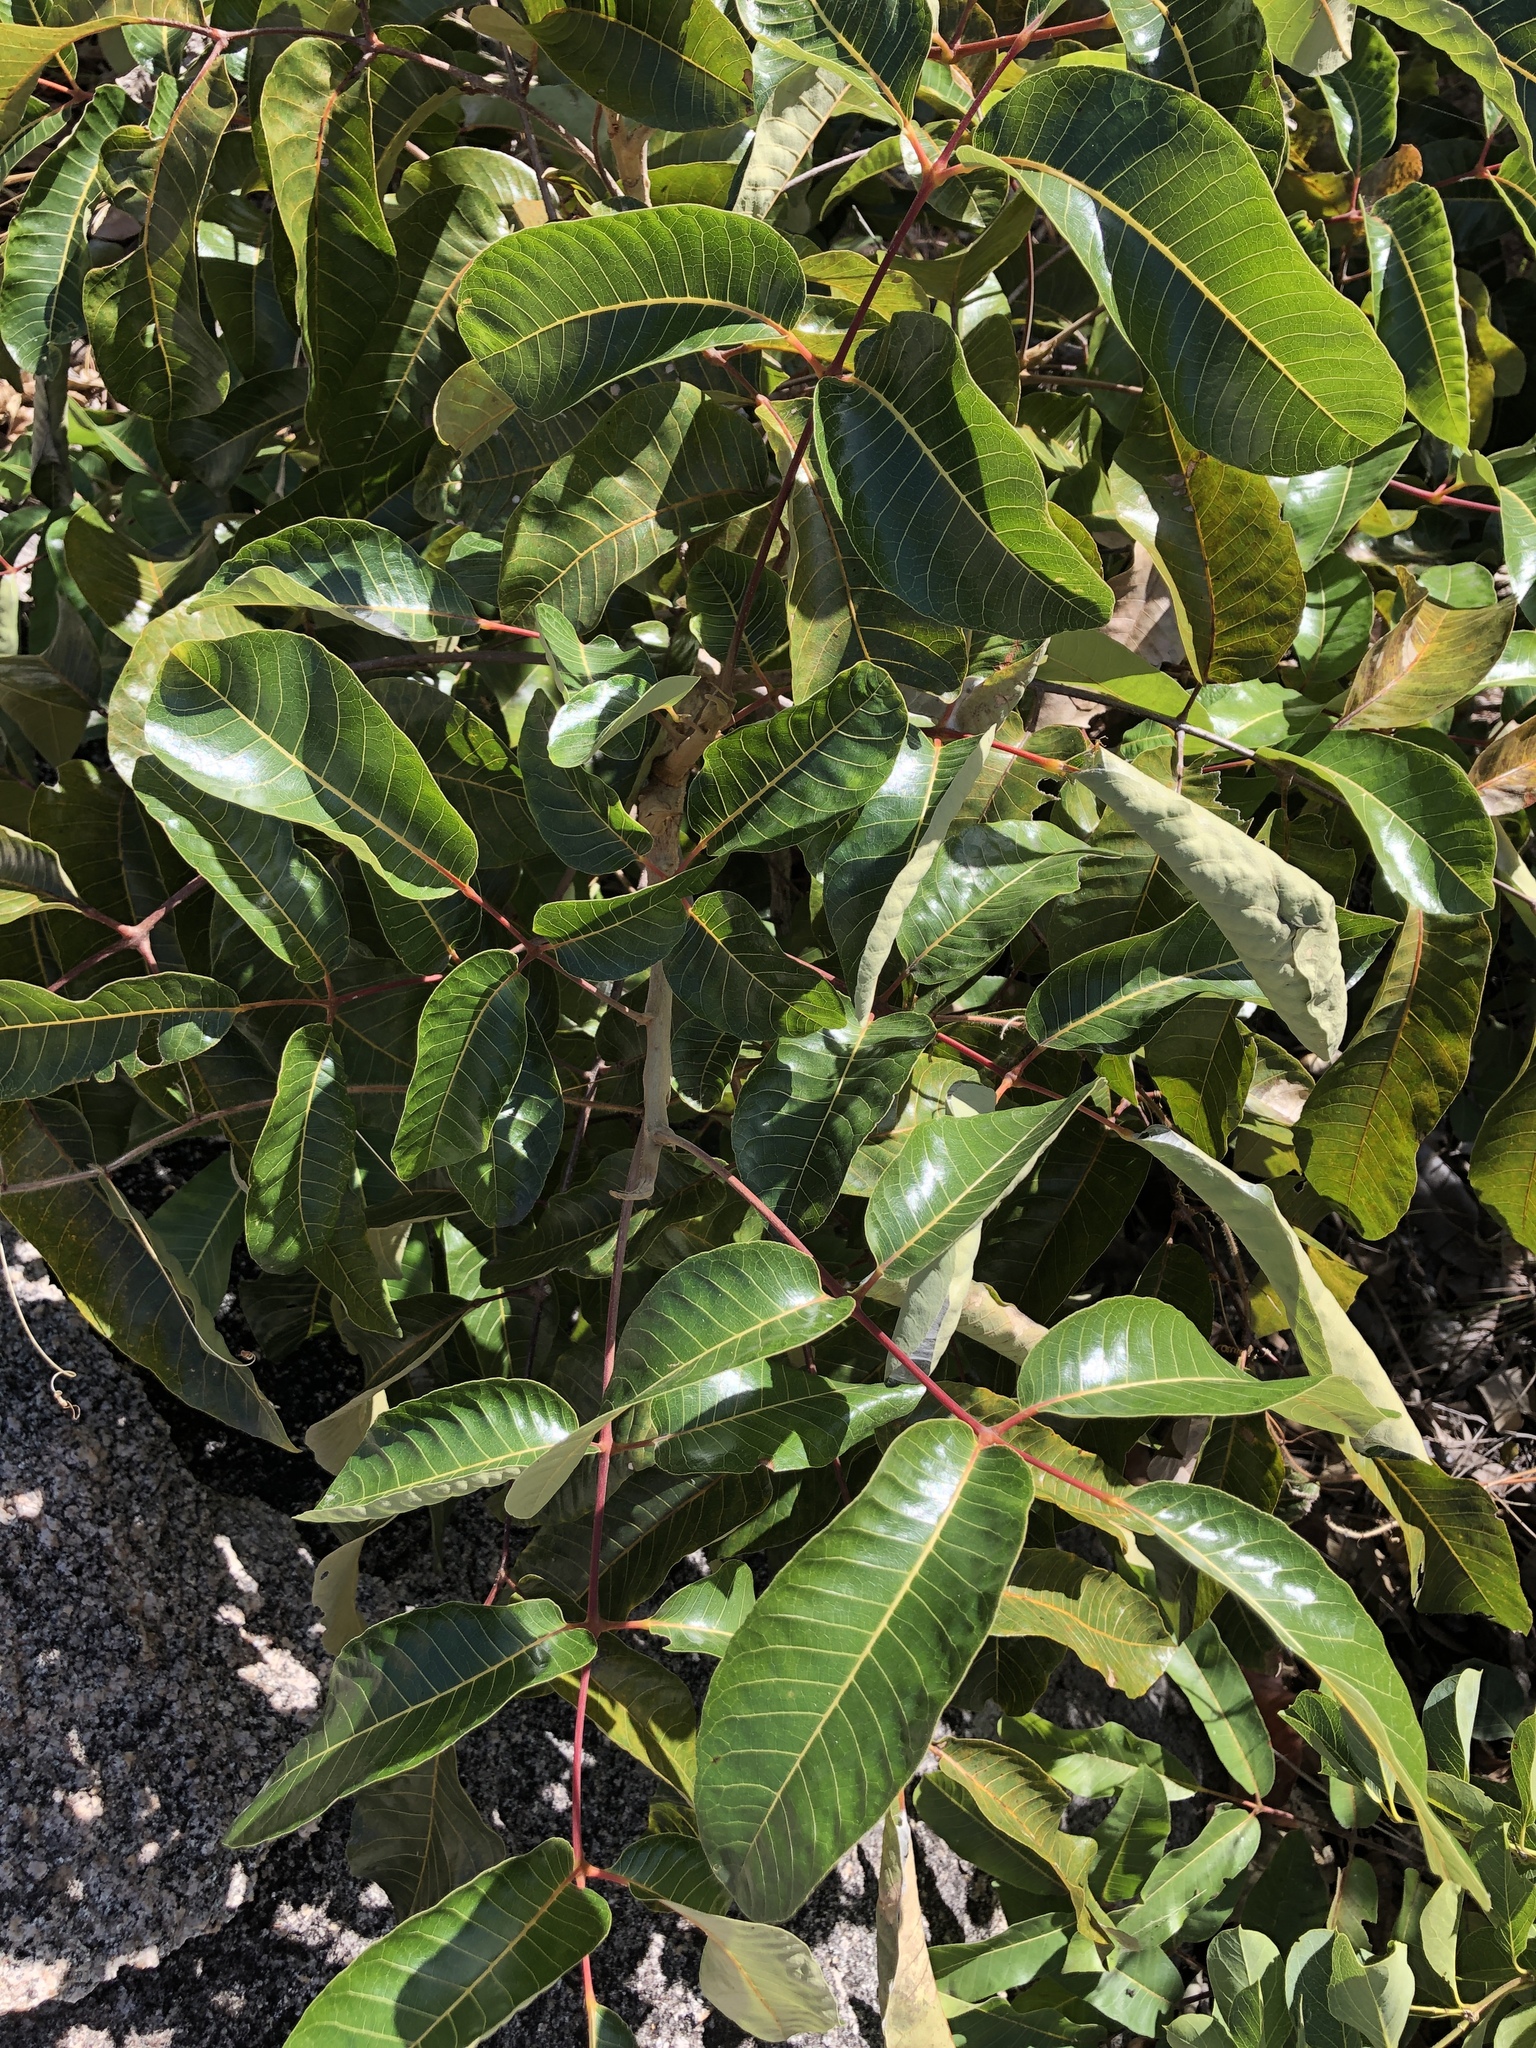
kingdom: Plantae
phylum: Tracheophyta
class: Magnoliopsida
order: Sapindales
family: Burseraceae
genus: Canarium
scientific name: Canarium australianum
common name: Island white-beech
